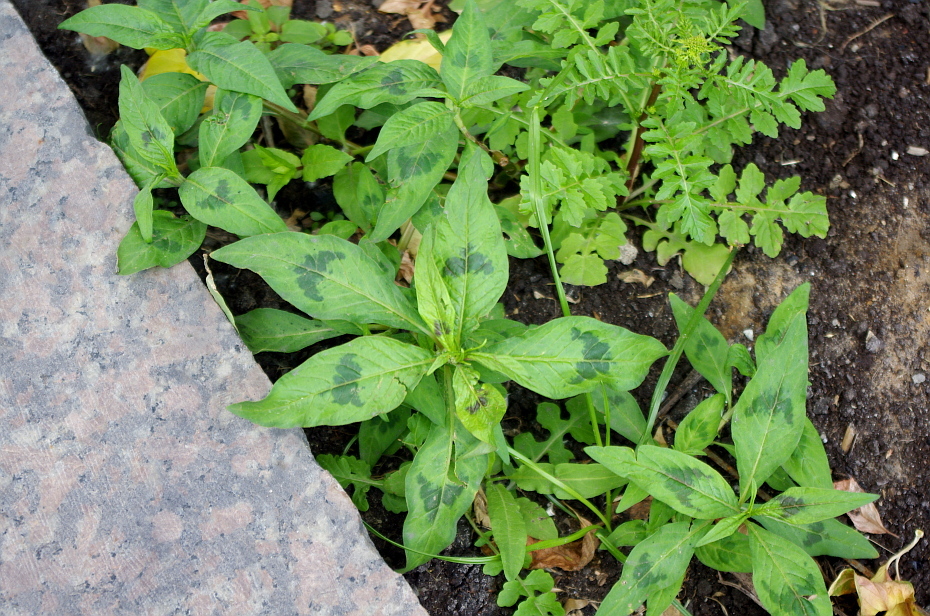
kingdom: Plantae
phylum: Tracheophyta
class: Magnoliopsida
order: Caryophyllales
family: Polygonaceae
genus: Persicaria
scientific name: Persicaria maculosa
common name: Redshank
